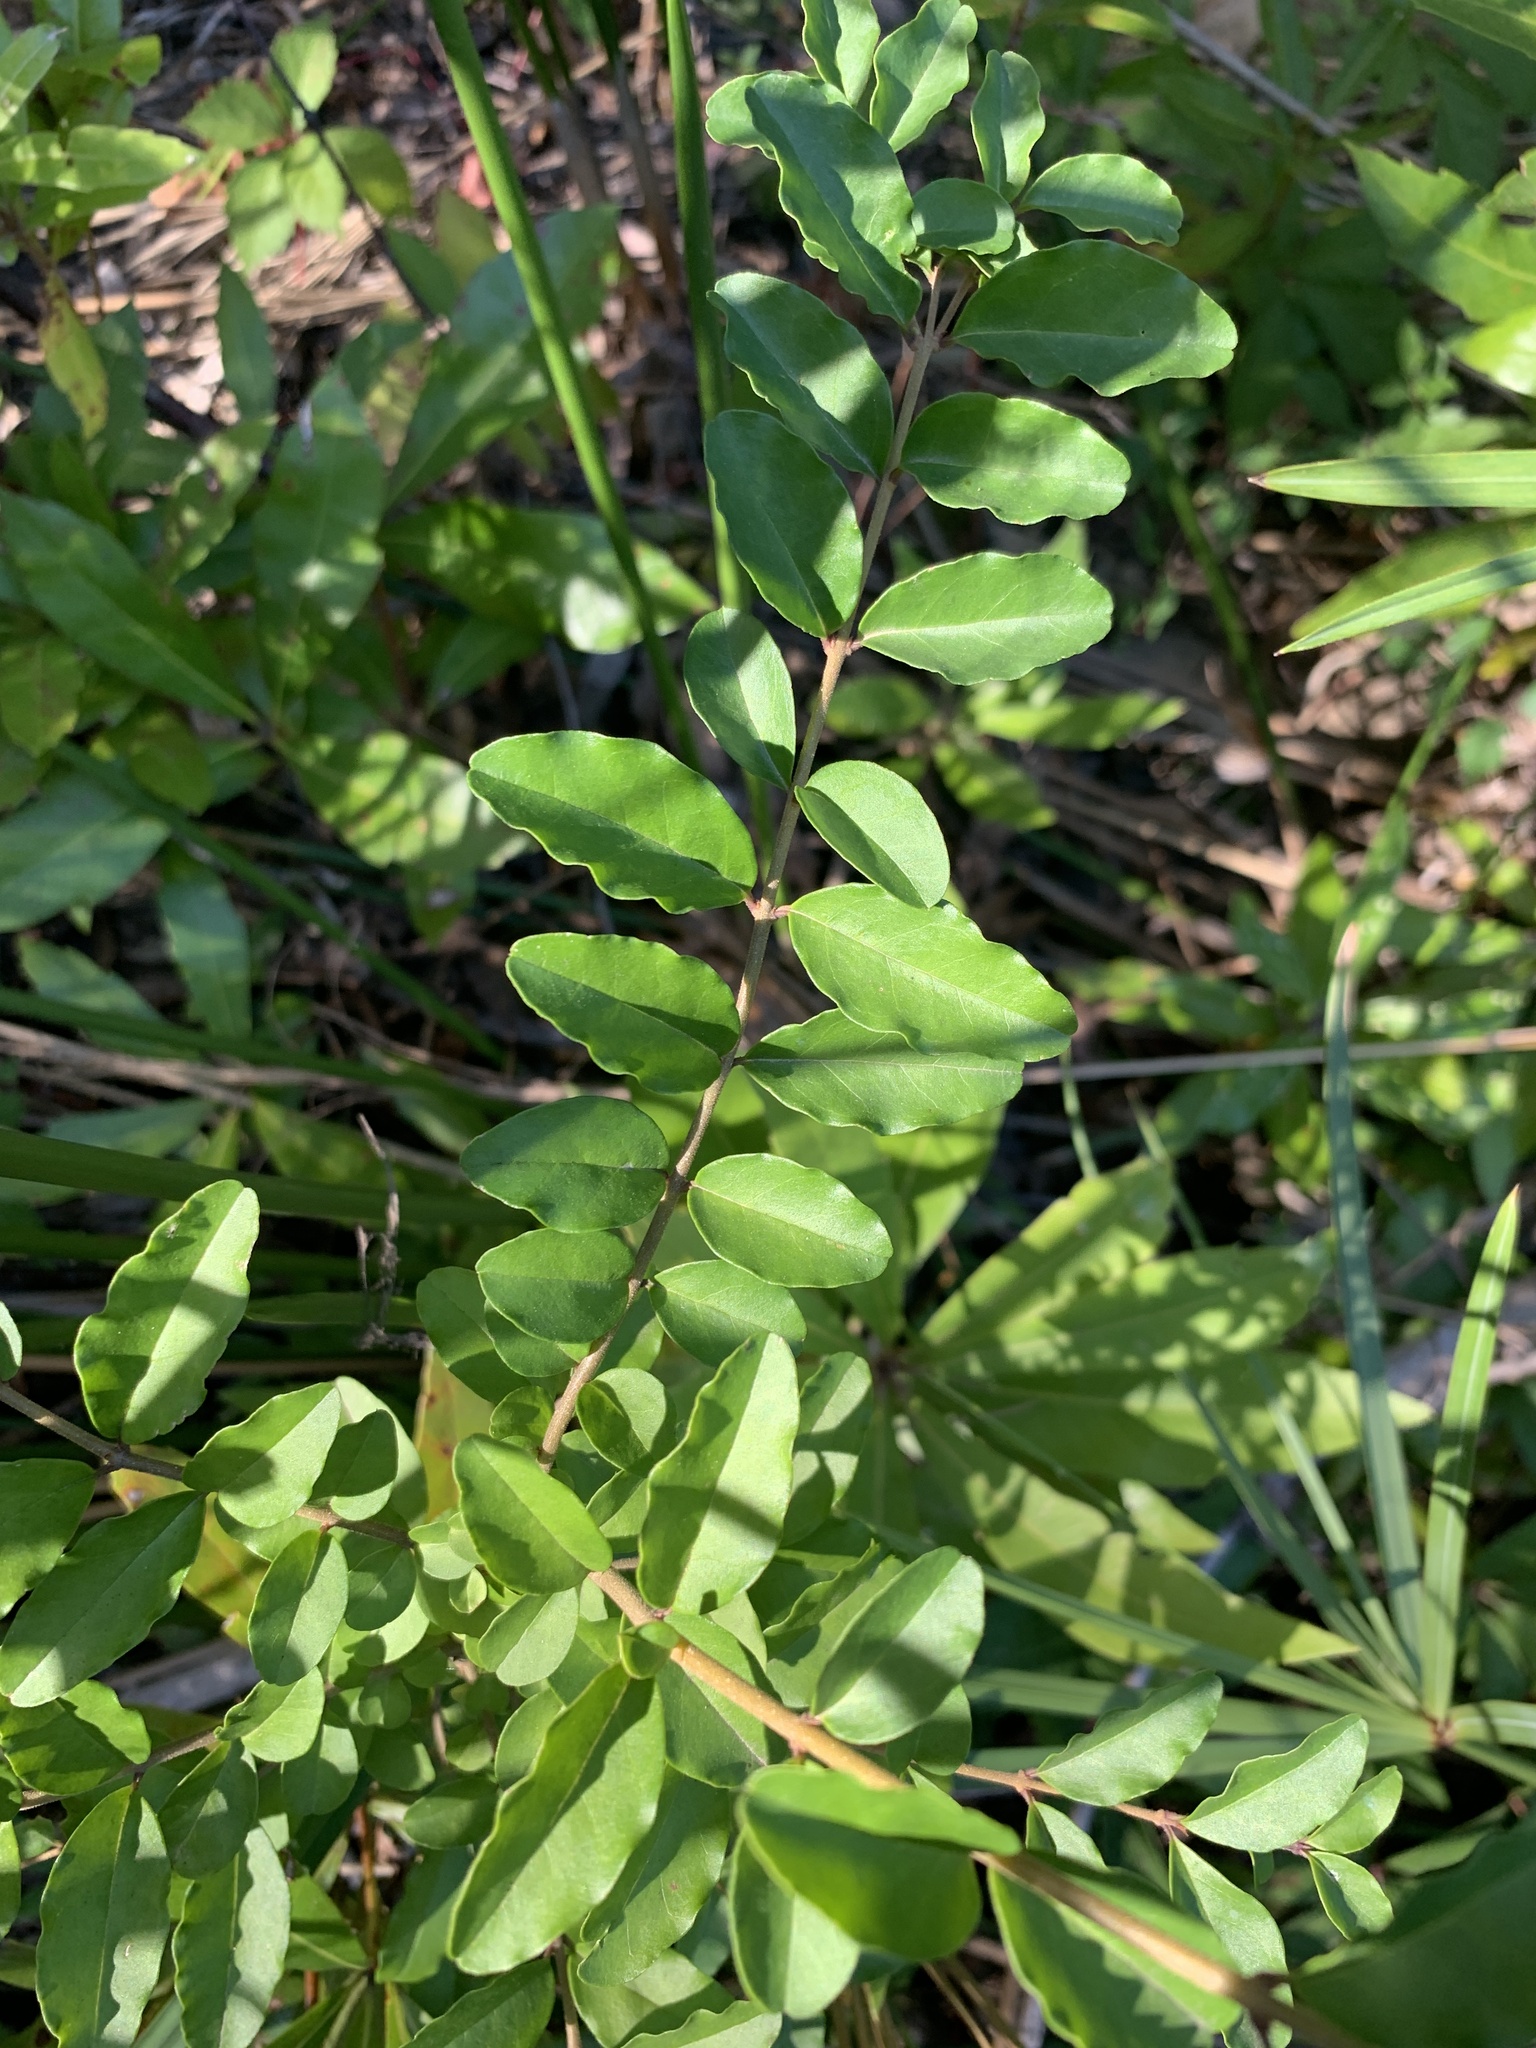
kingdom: Plantae
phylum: Tracheophyta
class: Magnoliopsida
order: Lamiales
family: Oleaceae
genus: Ligustrum
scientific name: Ligustrum sinense
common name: Chinese privet
